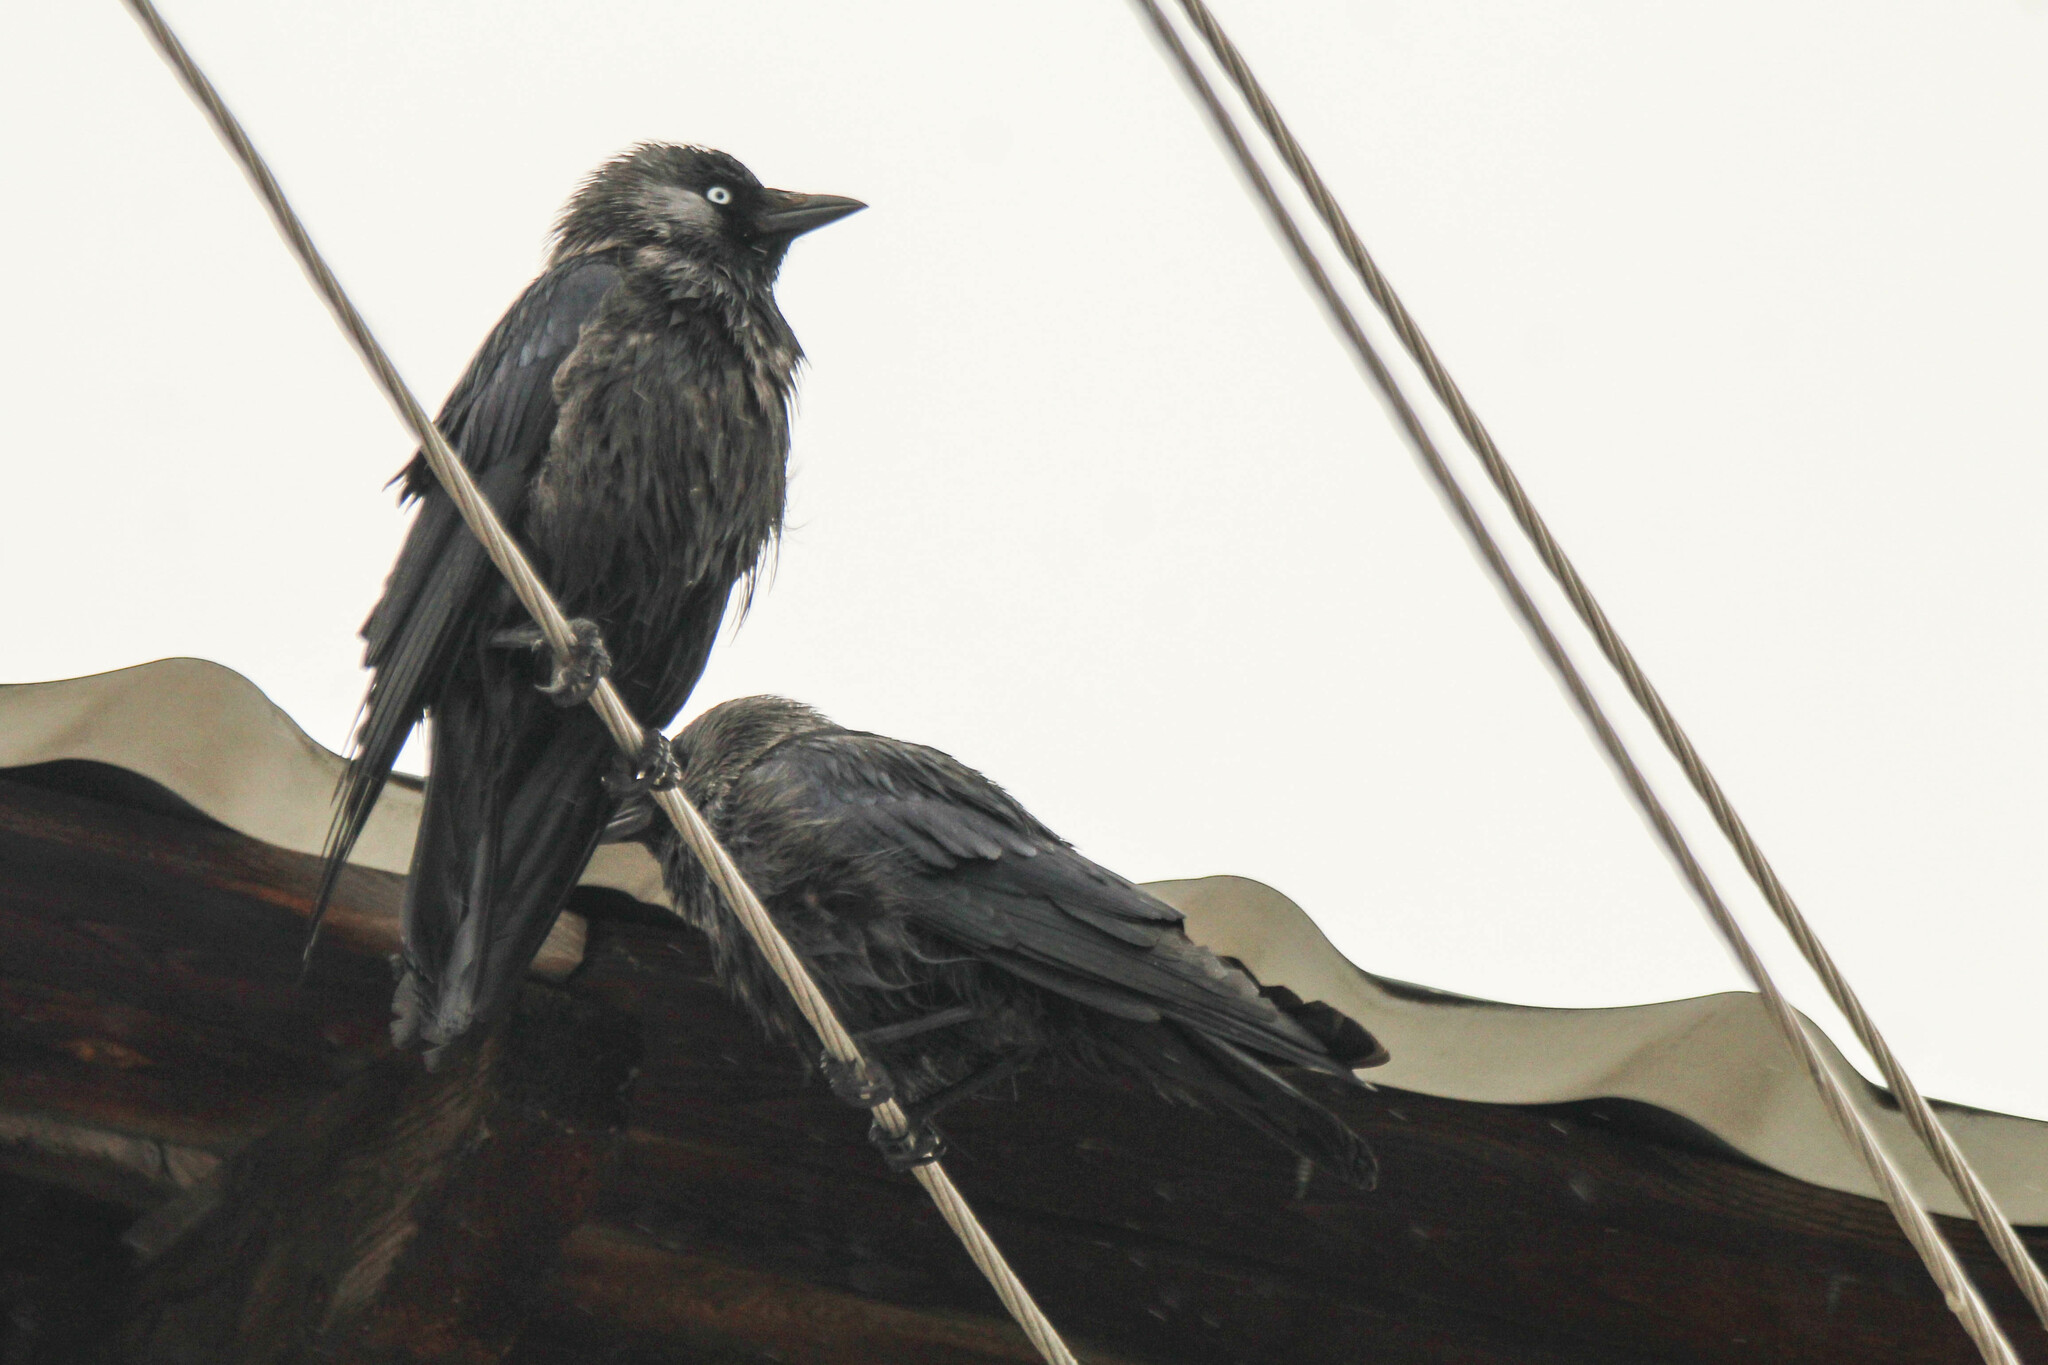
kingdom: Animalia
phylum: Chordata
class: Aves
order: Passeriformes
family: Corvidae
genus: Coloeus
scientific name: Coloeus monedula
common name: Western jackdaw
